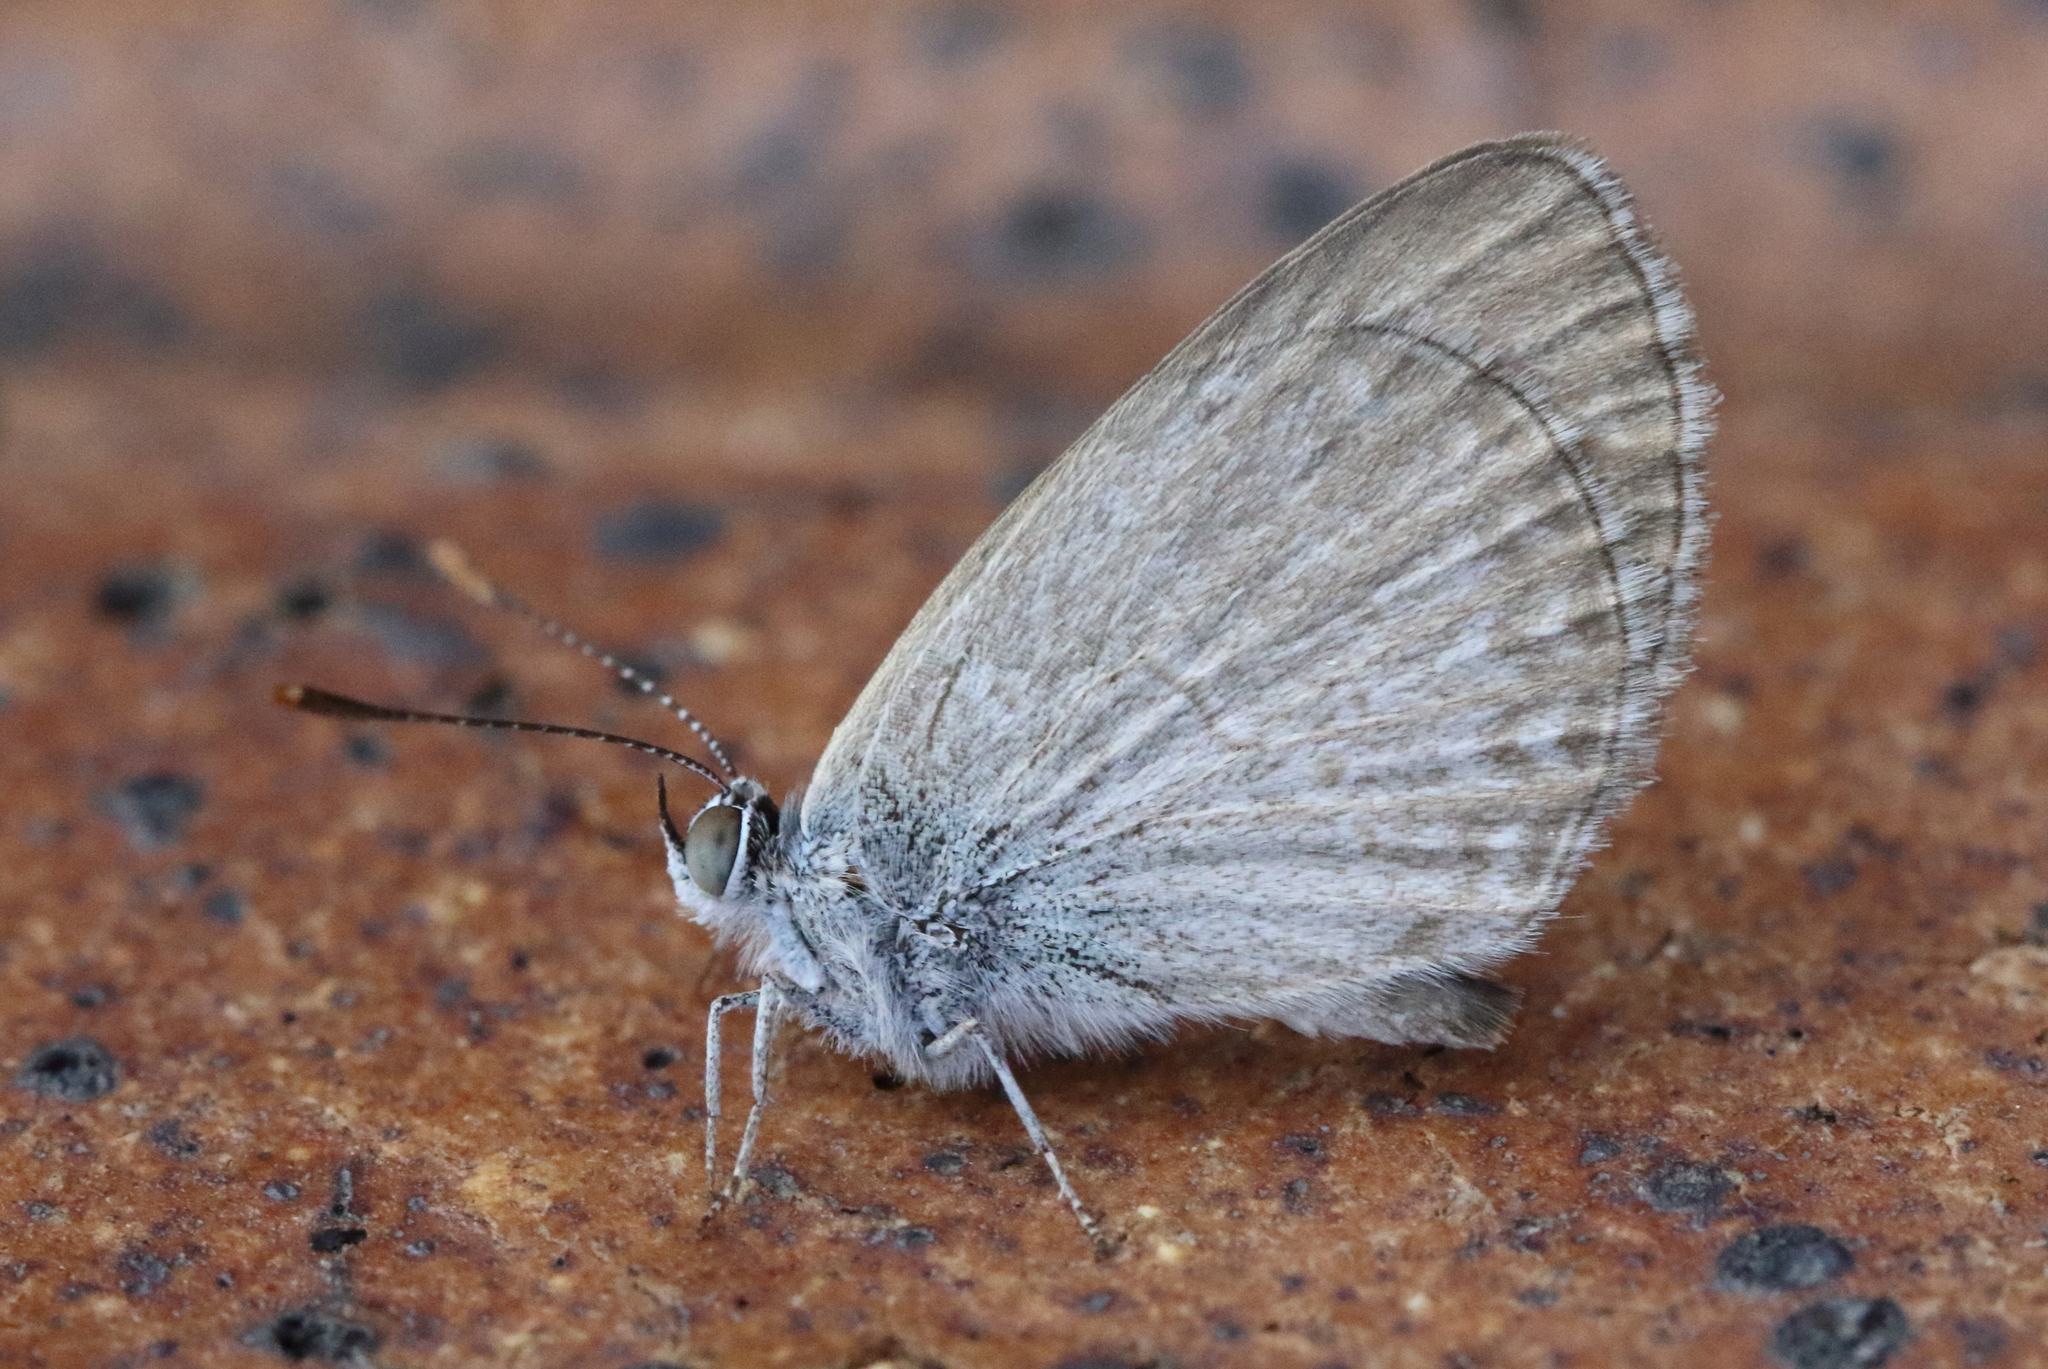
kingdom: Animalia
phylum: Arthropoda
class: Insecta
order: Lepidoptera
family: Lycaenidae
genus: Zizina
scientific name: Zizina labradus
